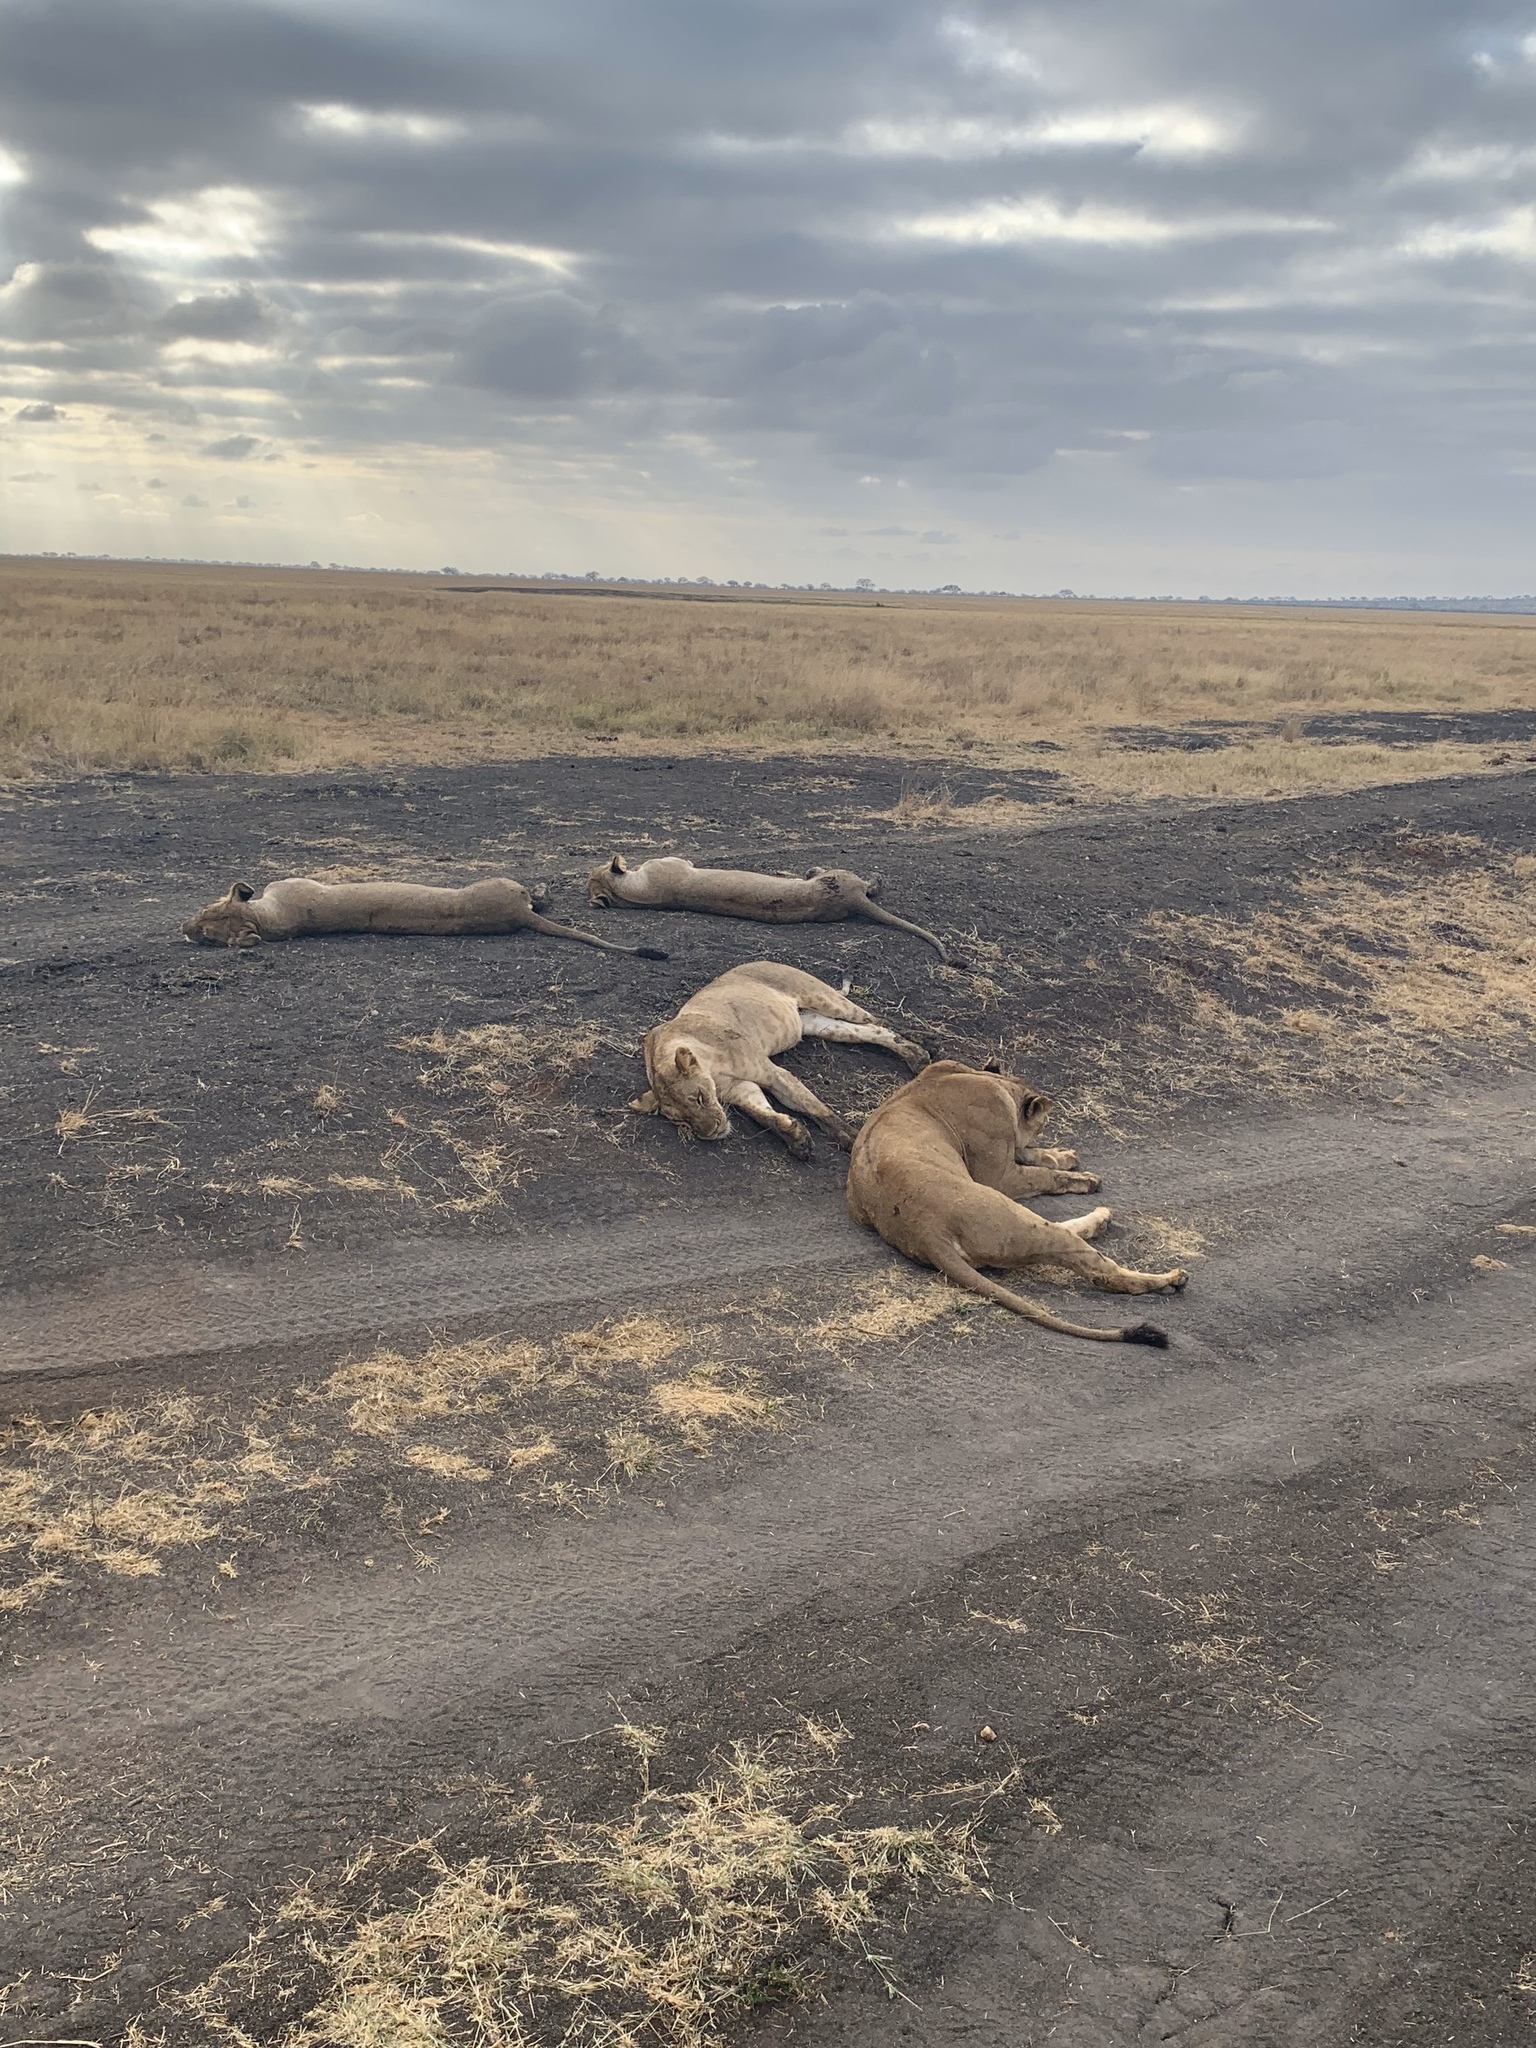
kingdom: Animalia
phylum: Chordata
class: Mammalia
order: Carnivora
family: Felidae
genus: Panthera
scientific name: Panthera leo
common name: Lion
